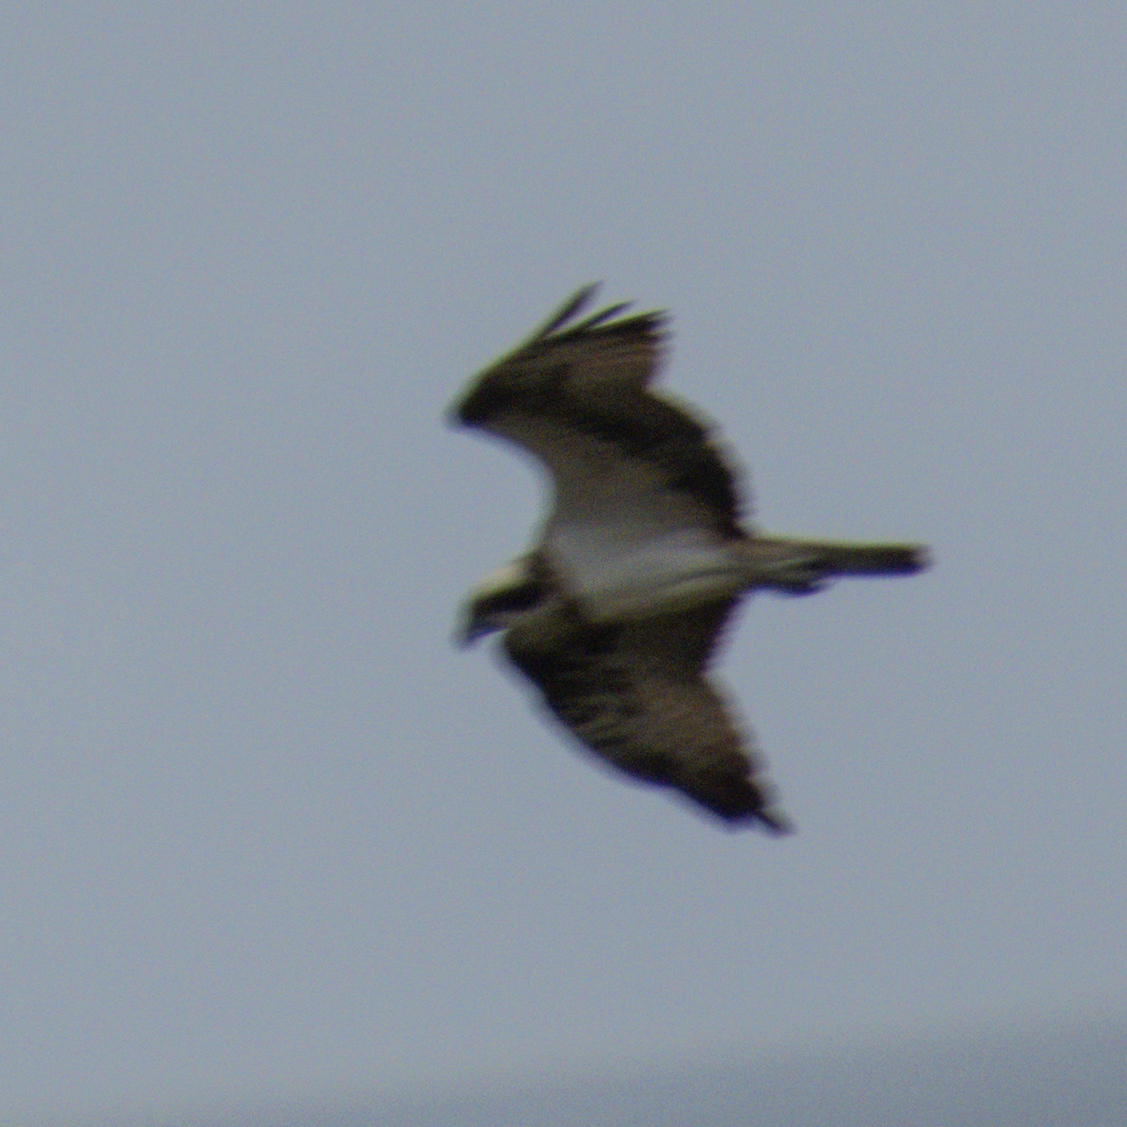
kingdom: Animalia
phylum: Chordata
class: Aves
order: Accipitriformes
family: Pandionidae
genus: Pandion
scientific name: Pandion haliaetus
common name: Osprey
